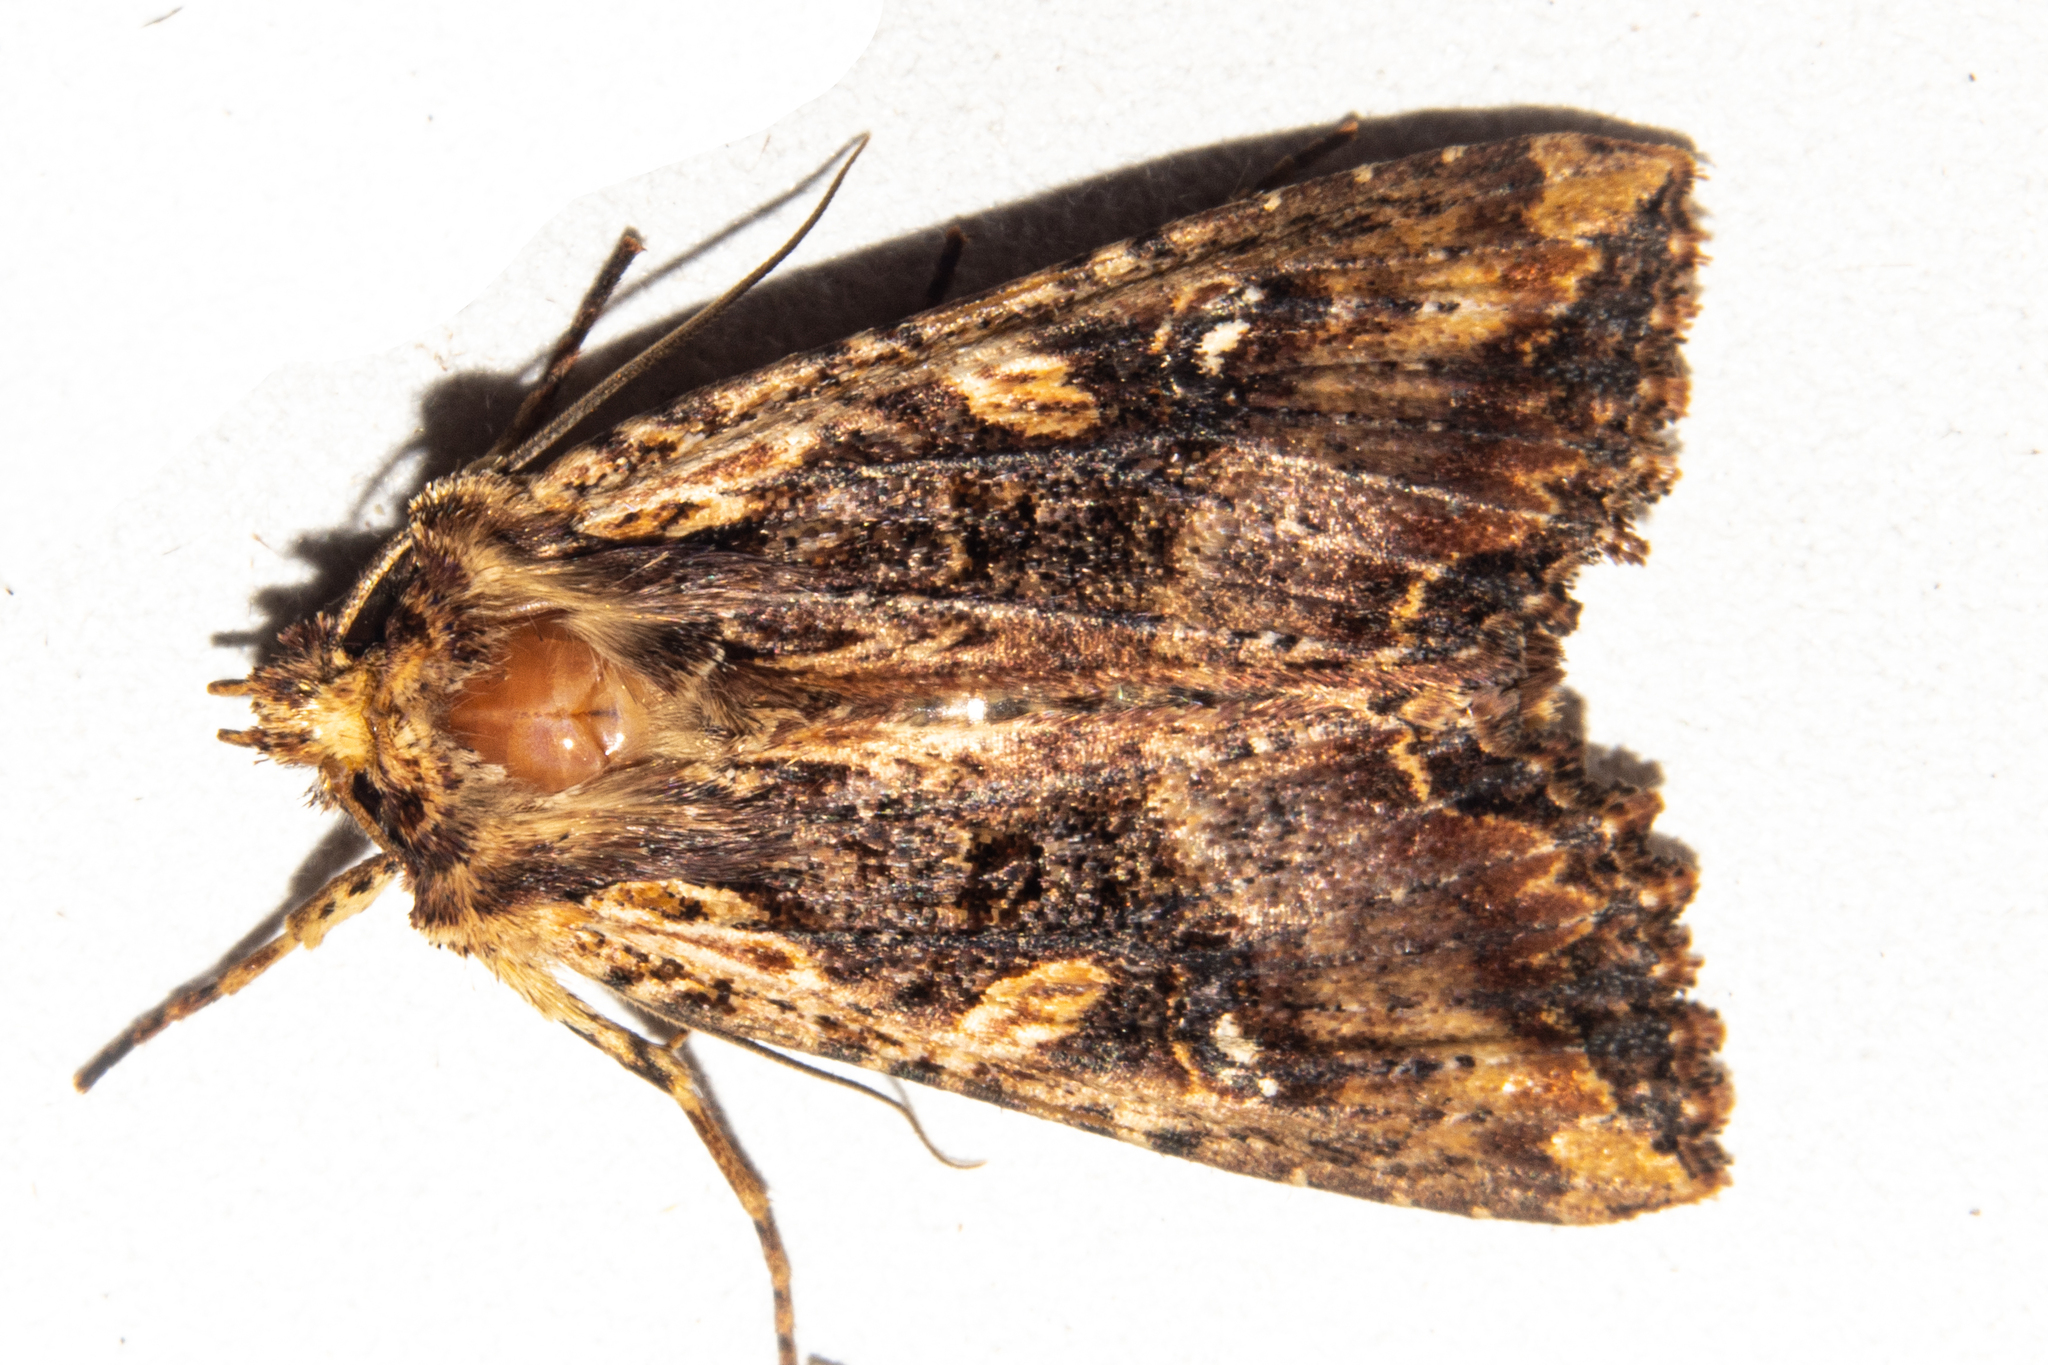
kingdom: Animalia
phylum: Arthropoda
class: Insecta
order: Lepidoptera
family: Noctuidae
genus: Meterana
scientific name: Meterana stipata
